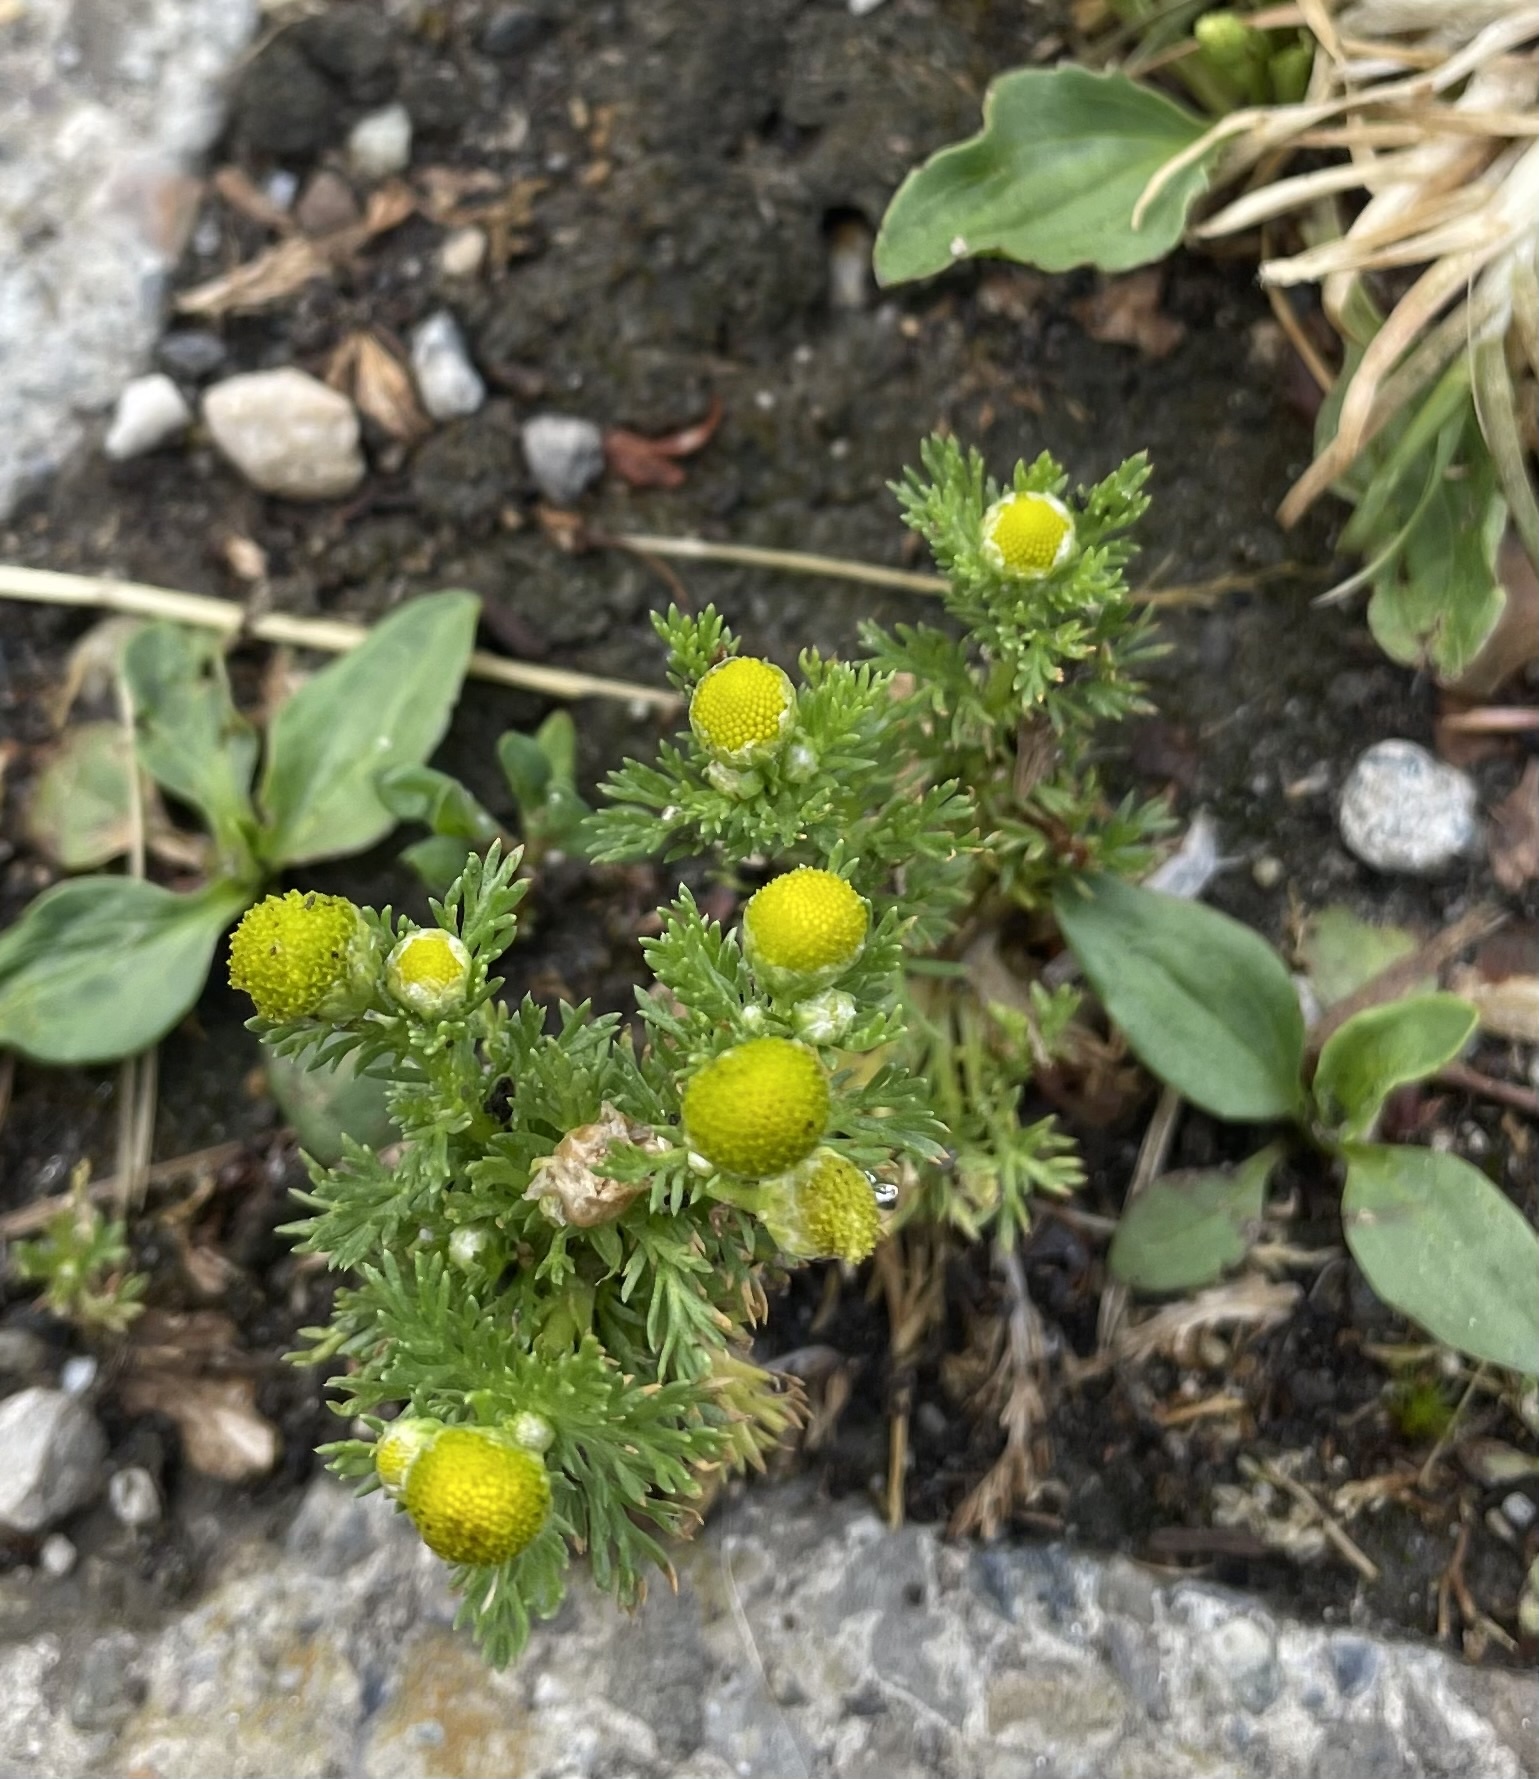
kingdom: Plantae
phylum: Tracheophyta
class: Magnoliopsida
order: Asterales
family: Asteraceae
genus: Matricaria
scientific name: Matricaria discoidea
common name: Disc mayweed
